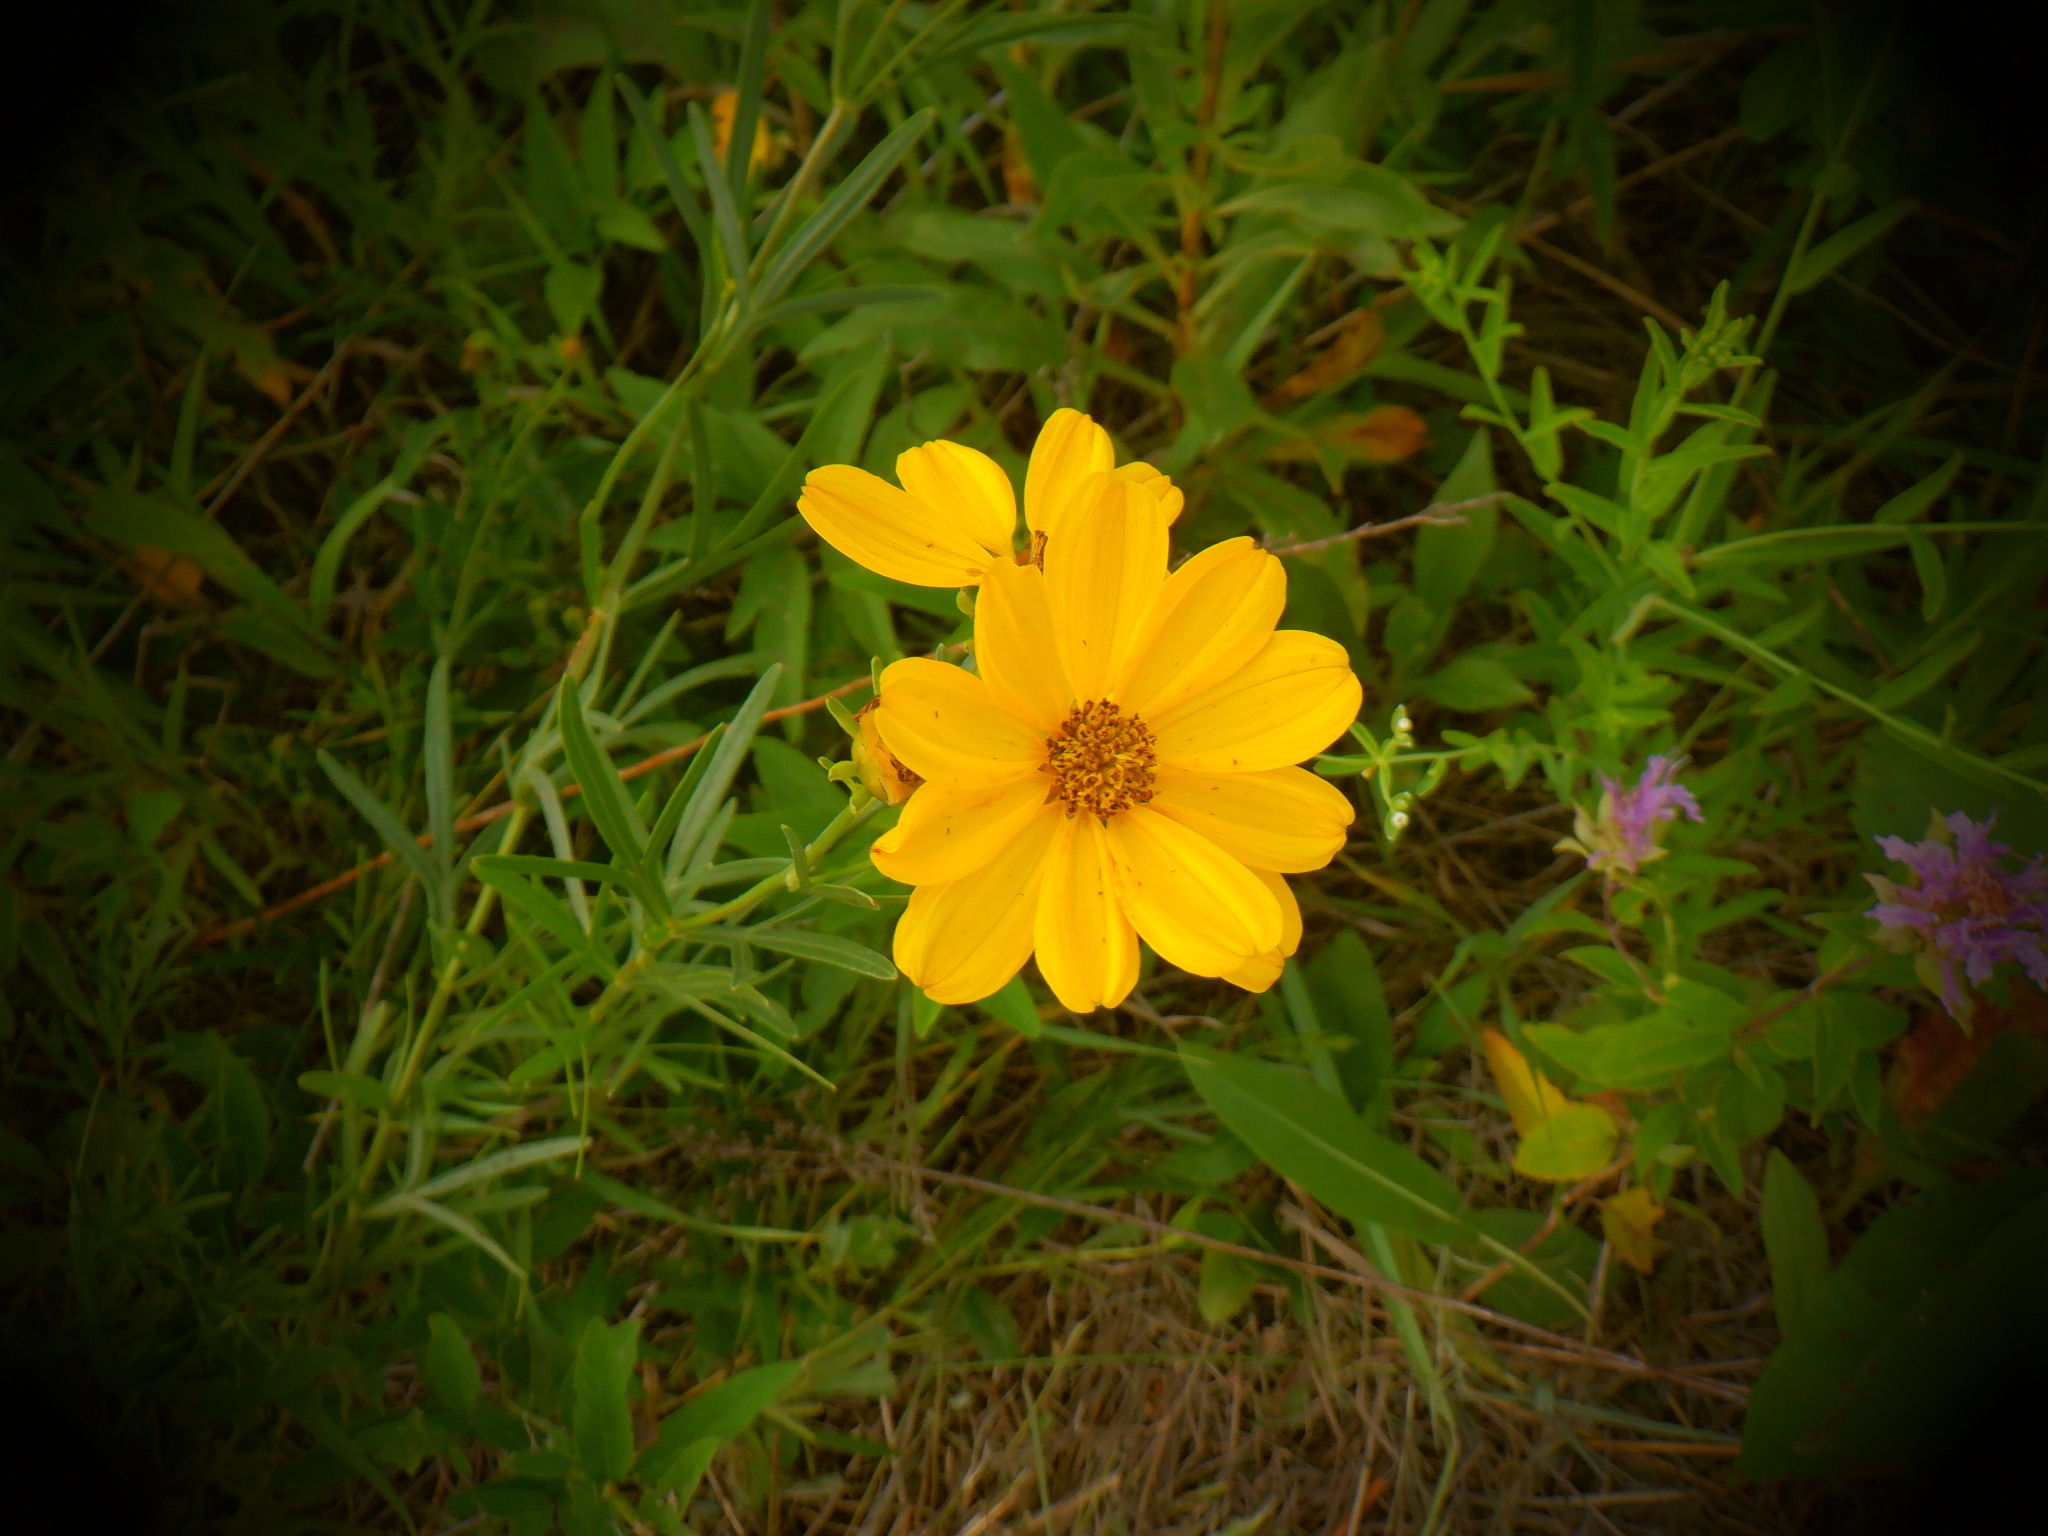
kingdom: Plantae
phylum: Tracheophyta
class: Magnoliopsida
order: Asterales
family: Asteraceae
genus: Coreopsis
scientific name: Coreopsis palmata
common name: Prairie coreopsis
